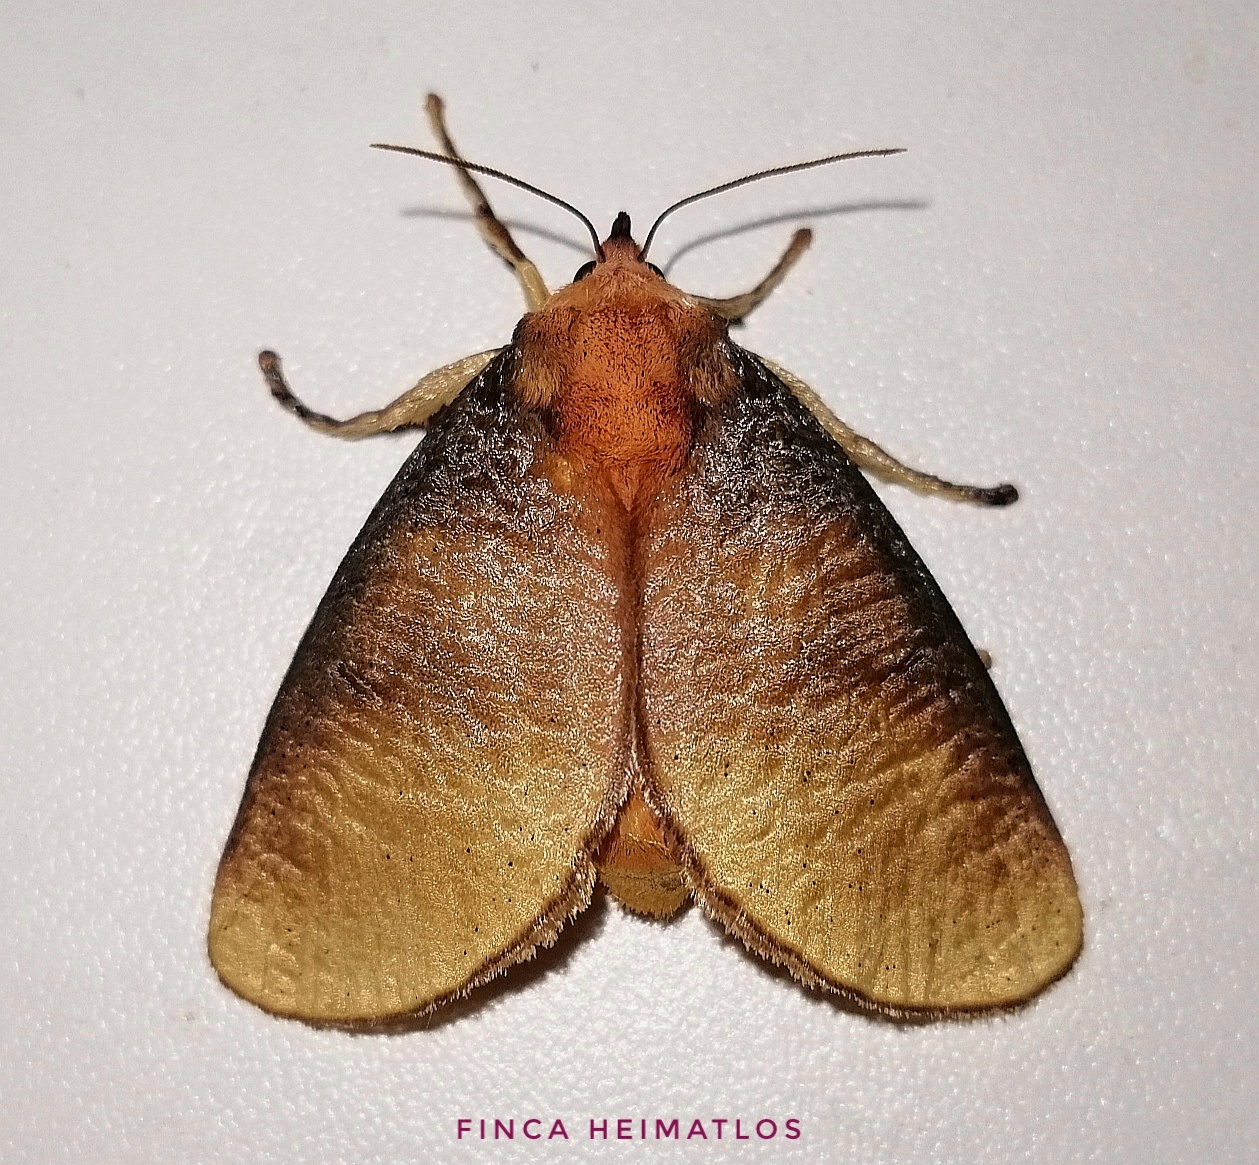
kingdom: Animalia
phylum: Arthropoda
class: Insecta
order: Lepidoptera
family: Limacodidae
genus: Ulamia
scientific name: Ulamia sericea
